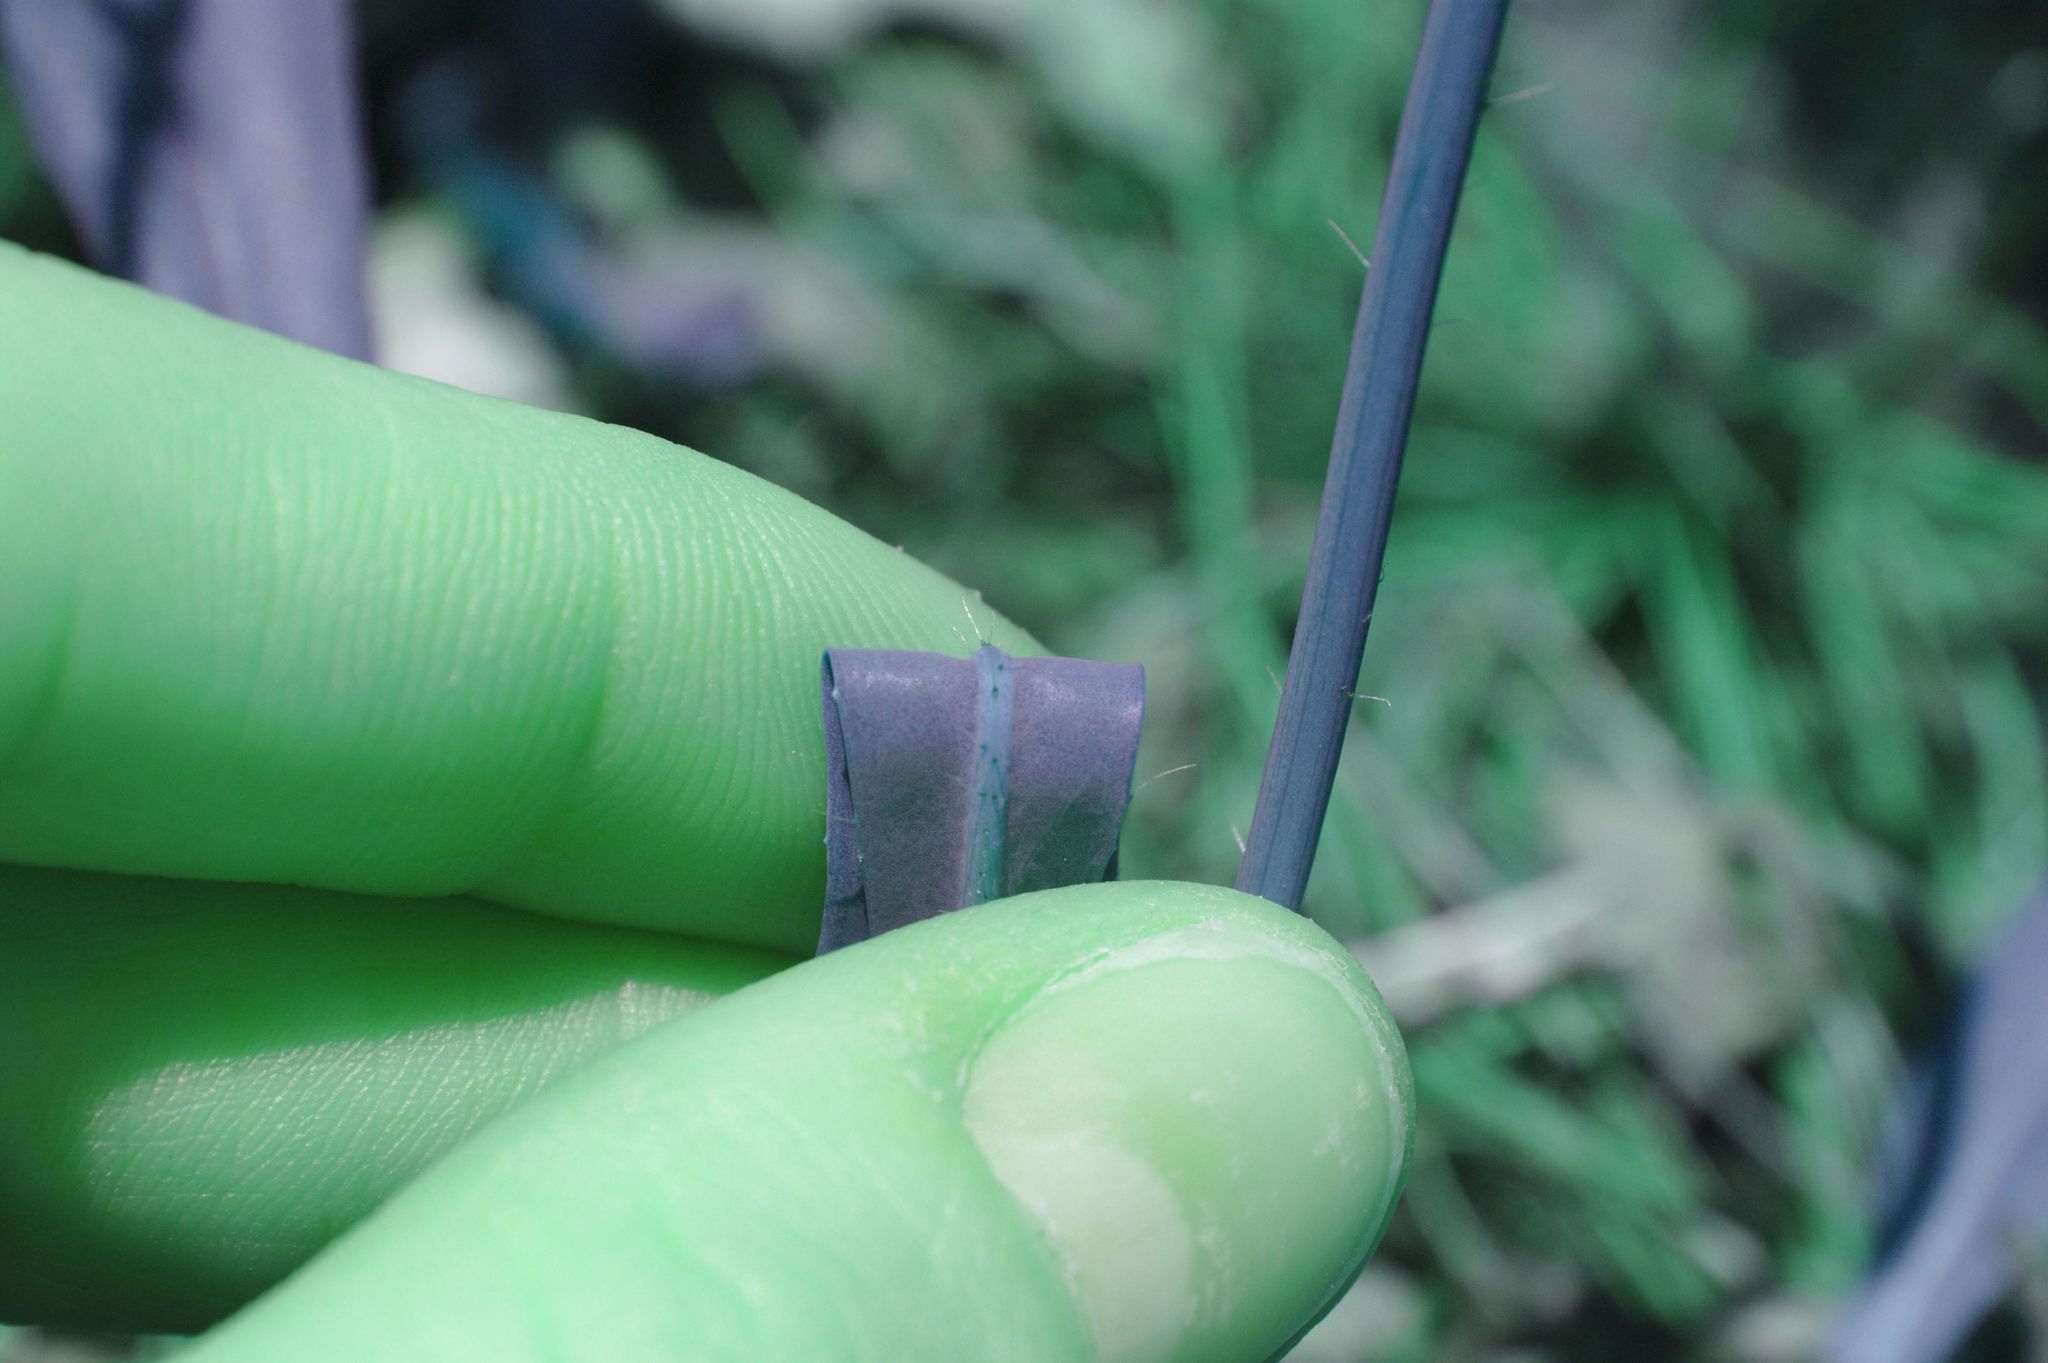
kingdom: Plantae
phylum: Tracheophyta
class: Magnoliopsida
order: Asterales
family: Asteraceae
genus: Pilosella
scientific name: Pilosella floribunda
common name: Glaucous hawkweed
